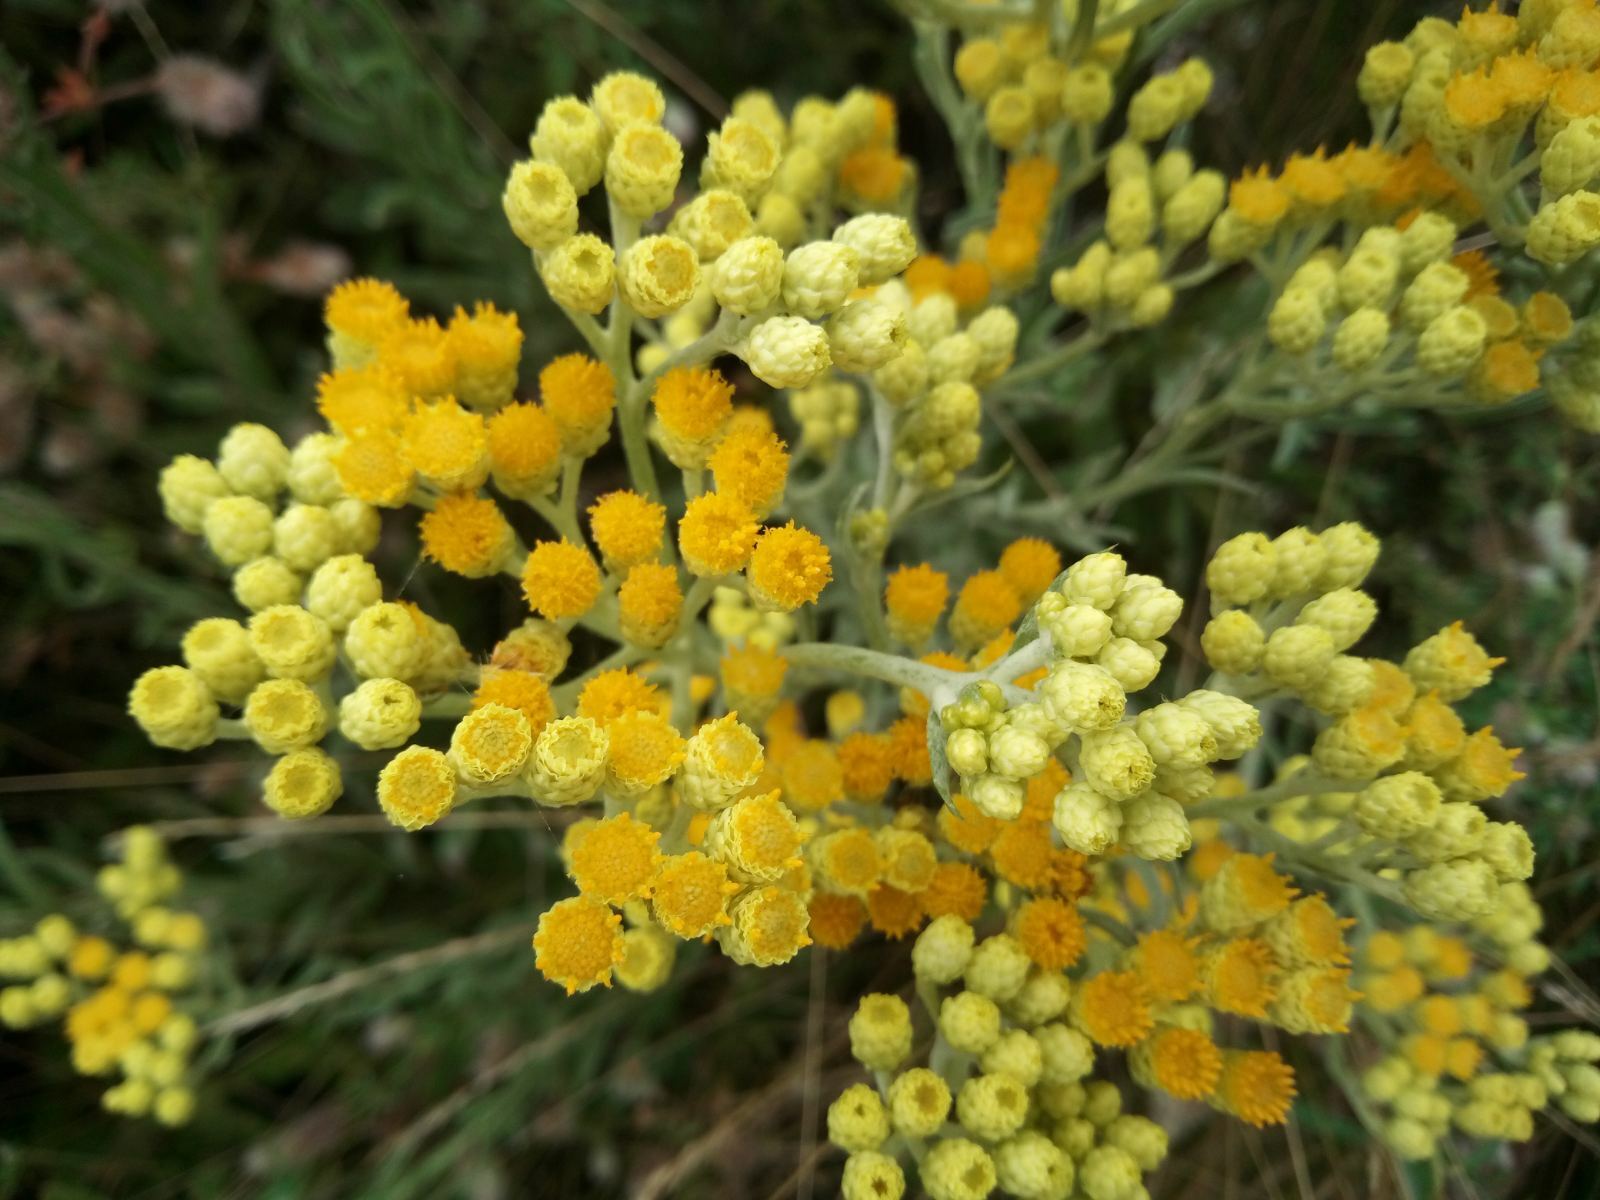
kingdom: Plantae
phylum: Tracheophyta
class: Magnoliopsida
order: Asterales
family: Asteraceae
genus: Helichrysum
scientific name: Helichrysum arenarium
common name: Strawflower
